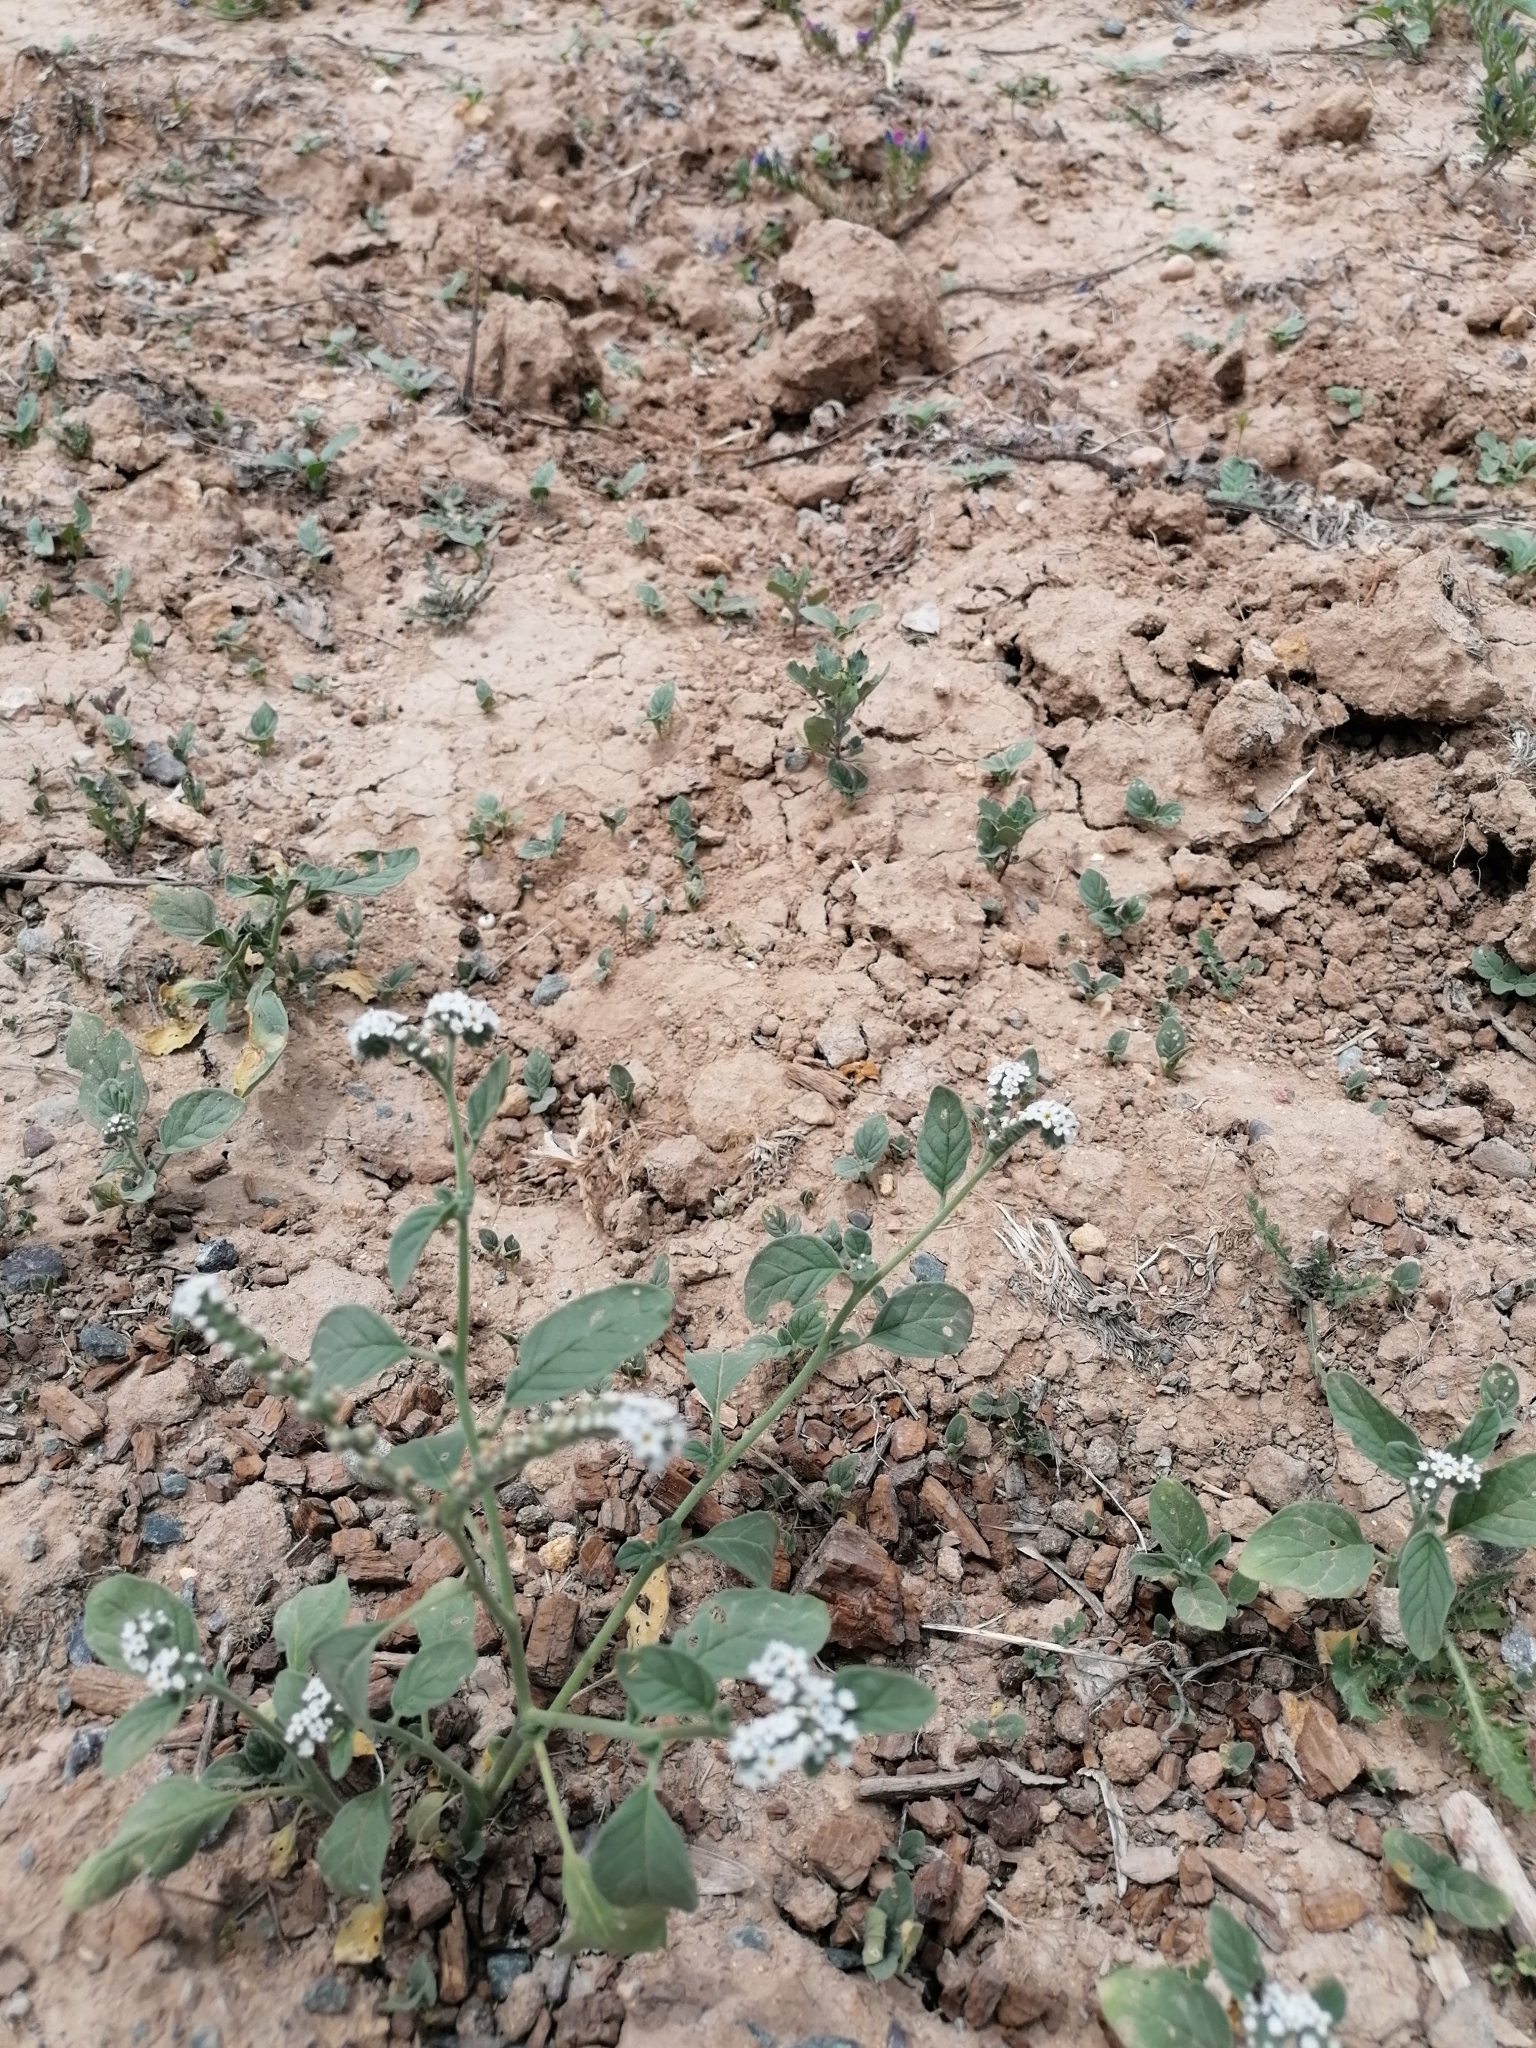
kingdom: Plantae
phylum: Tracheophyta
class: Magnoliopsida
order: Boraginales
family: Heliotropiaceae
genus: Heliotropium
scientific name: Heliotropium europaeum
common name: European heliotrope
